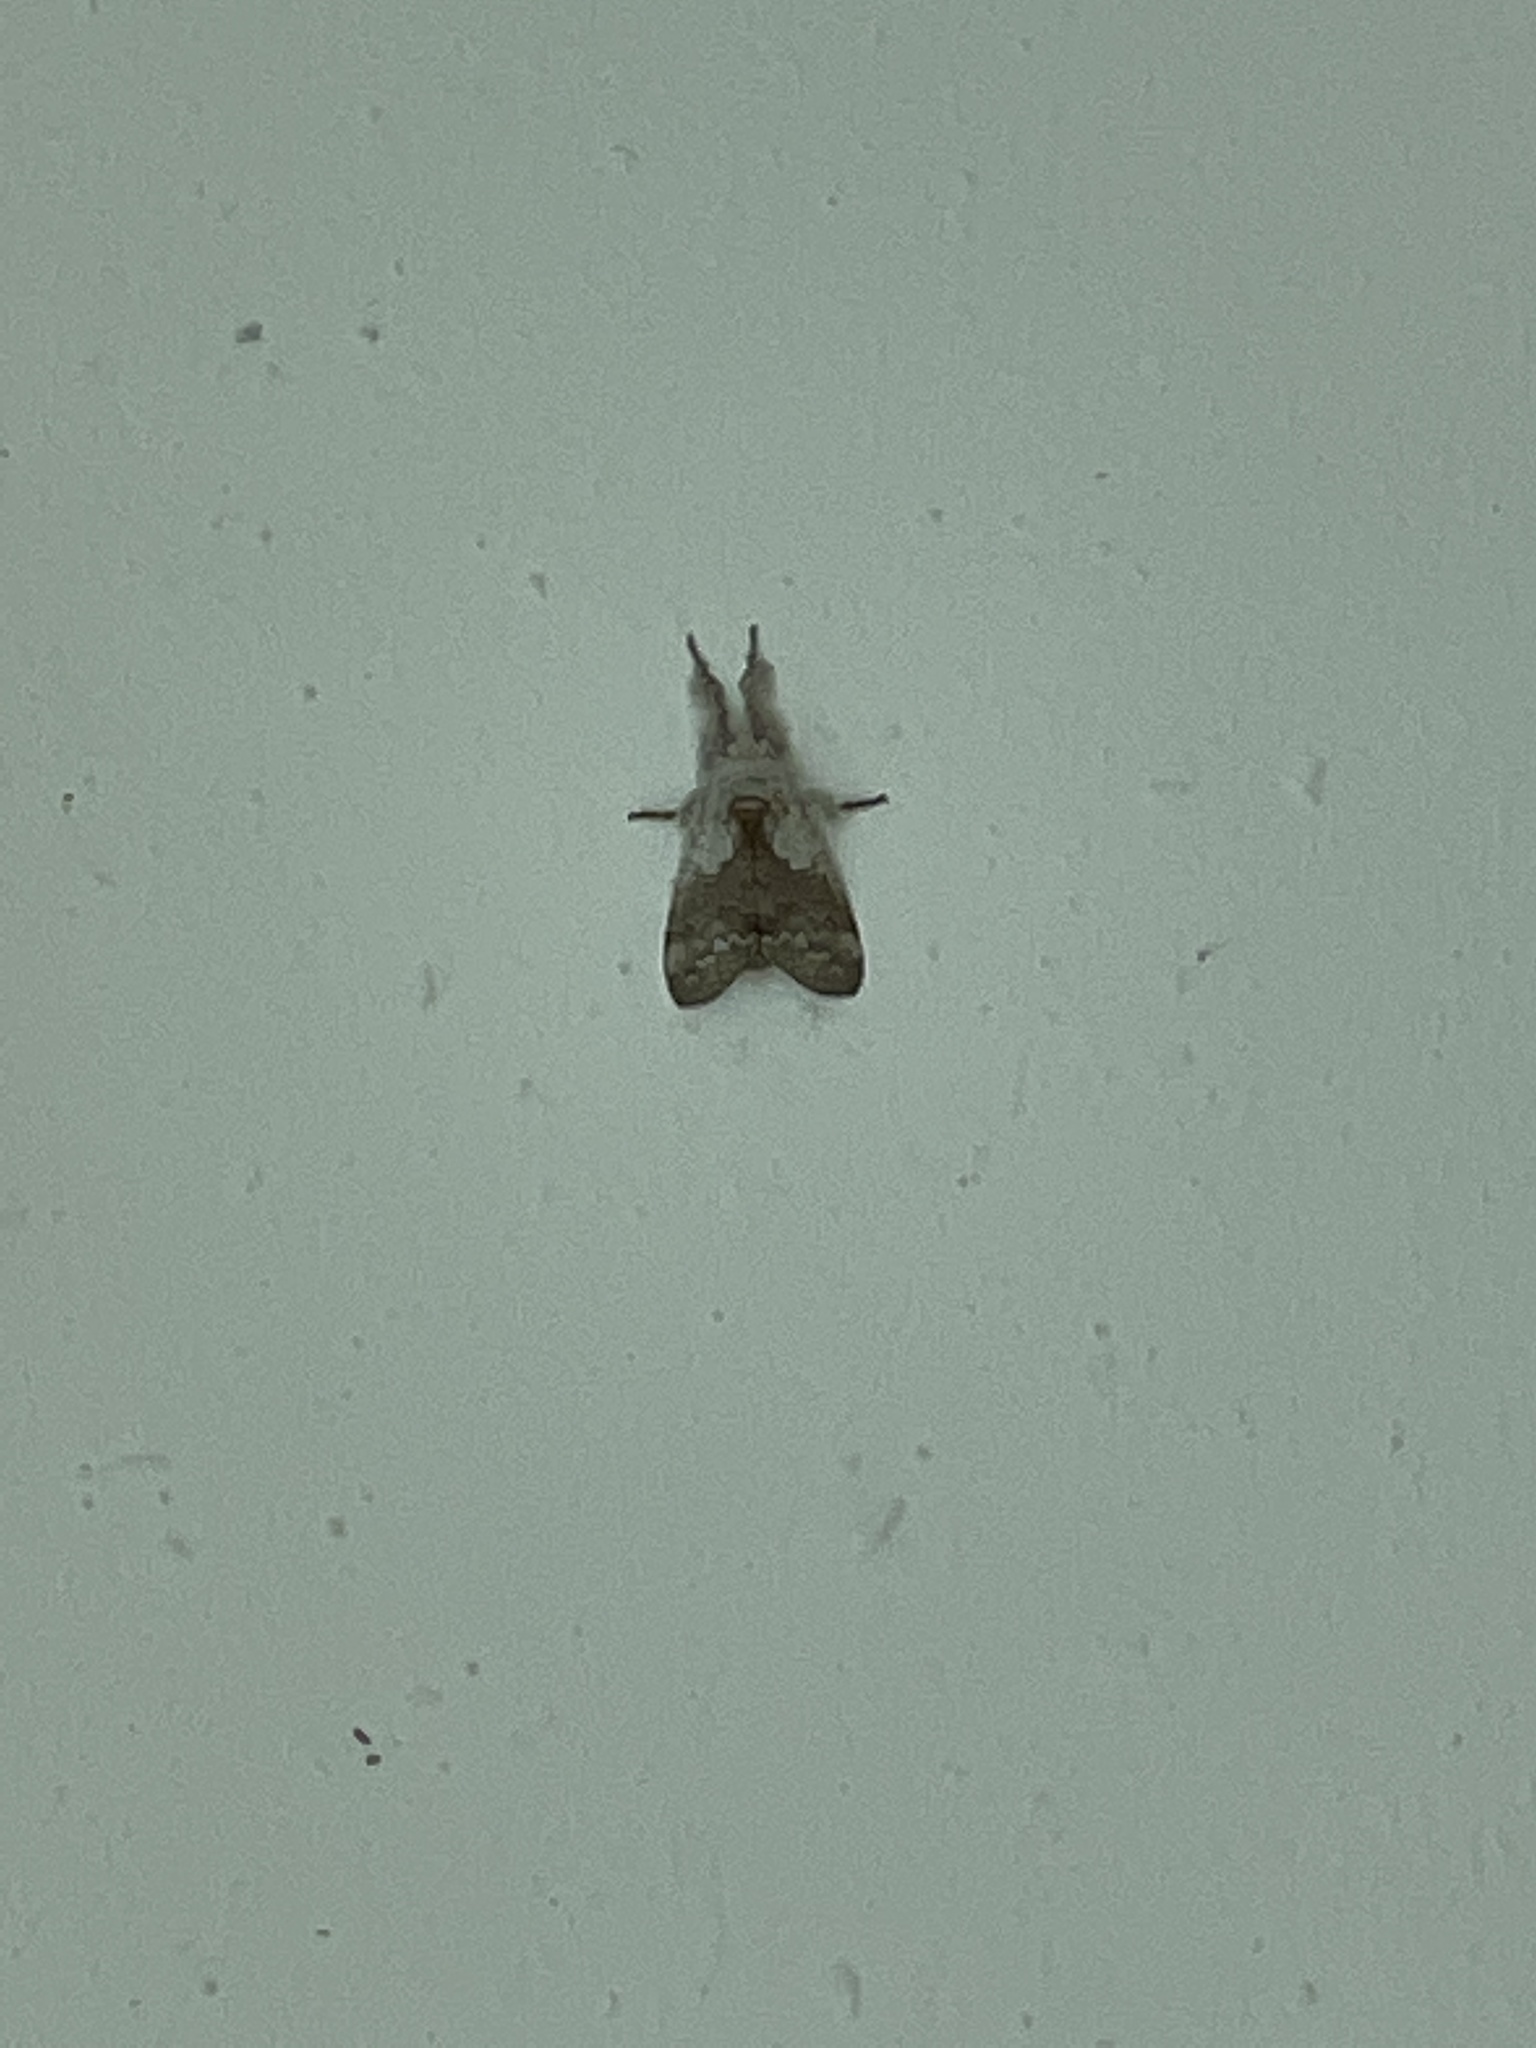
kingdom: Animalia
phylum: Arthropoda
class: Insecta
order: Lepidoptera
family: Erebidae
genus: Calliteara
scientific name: Calliteara grotei
